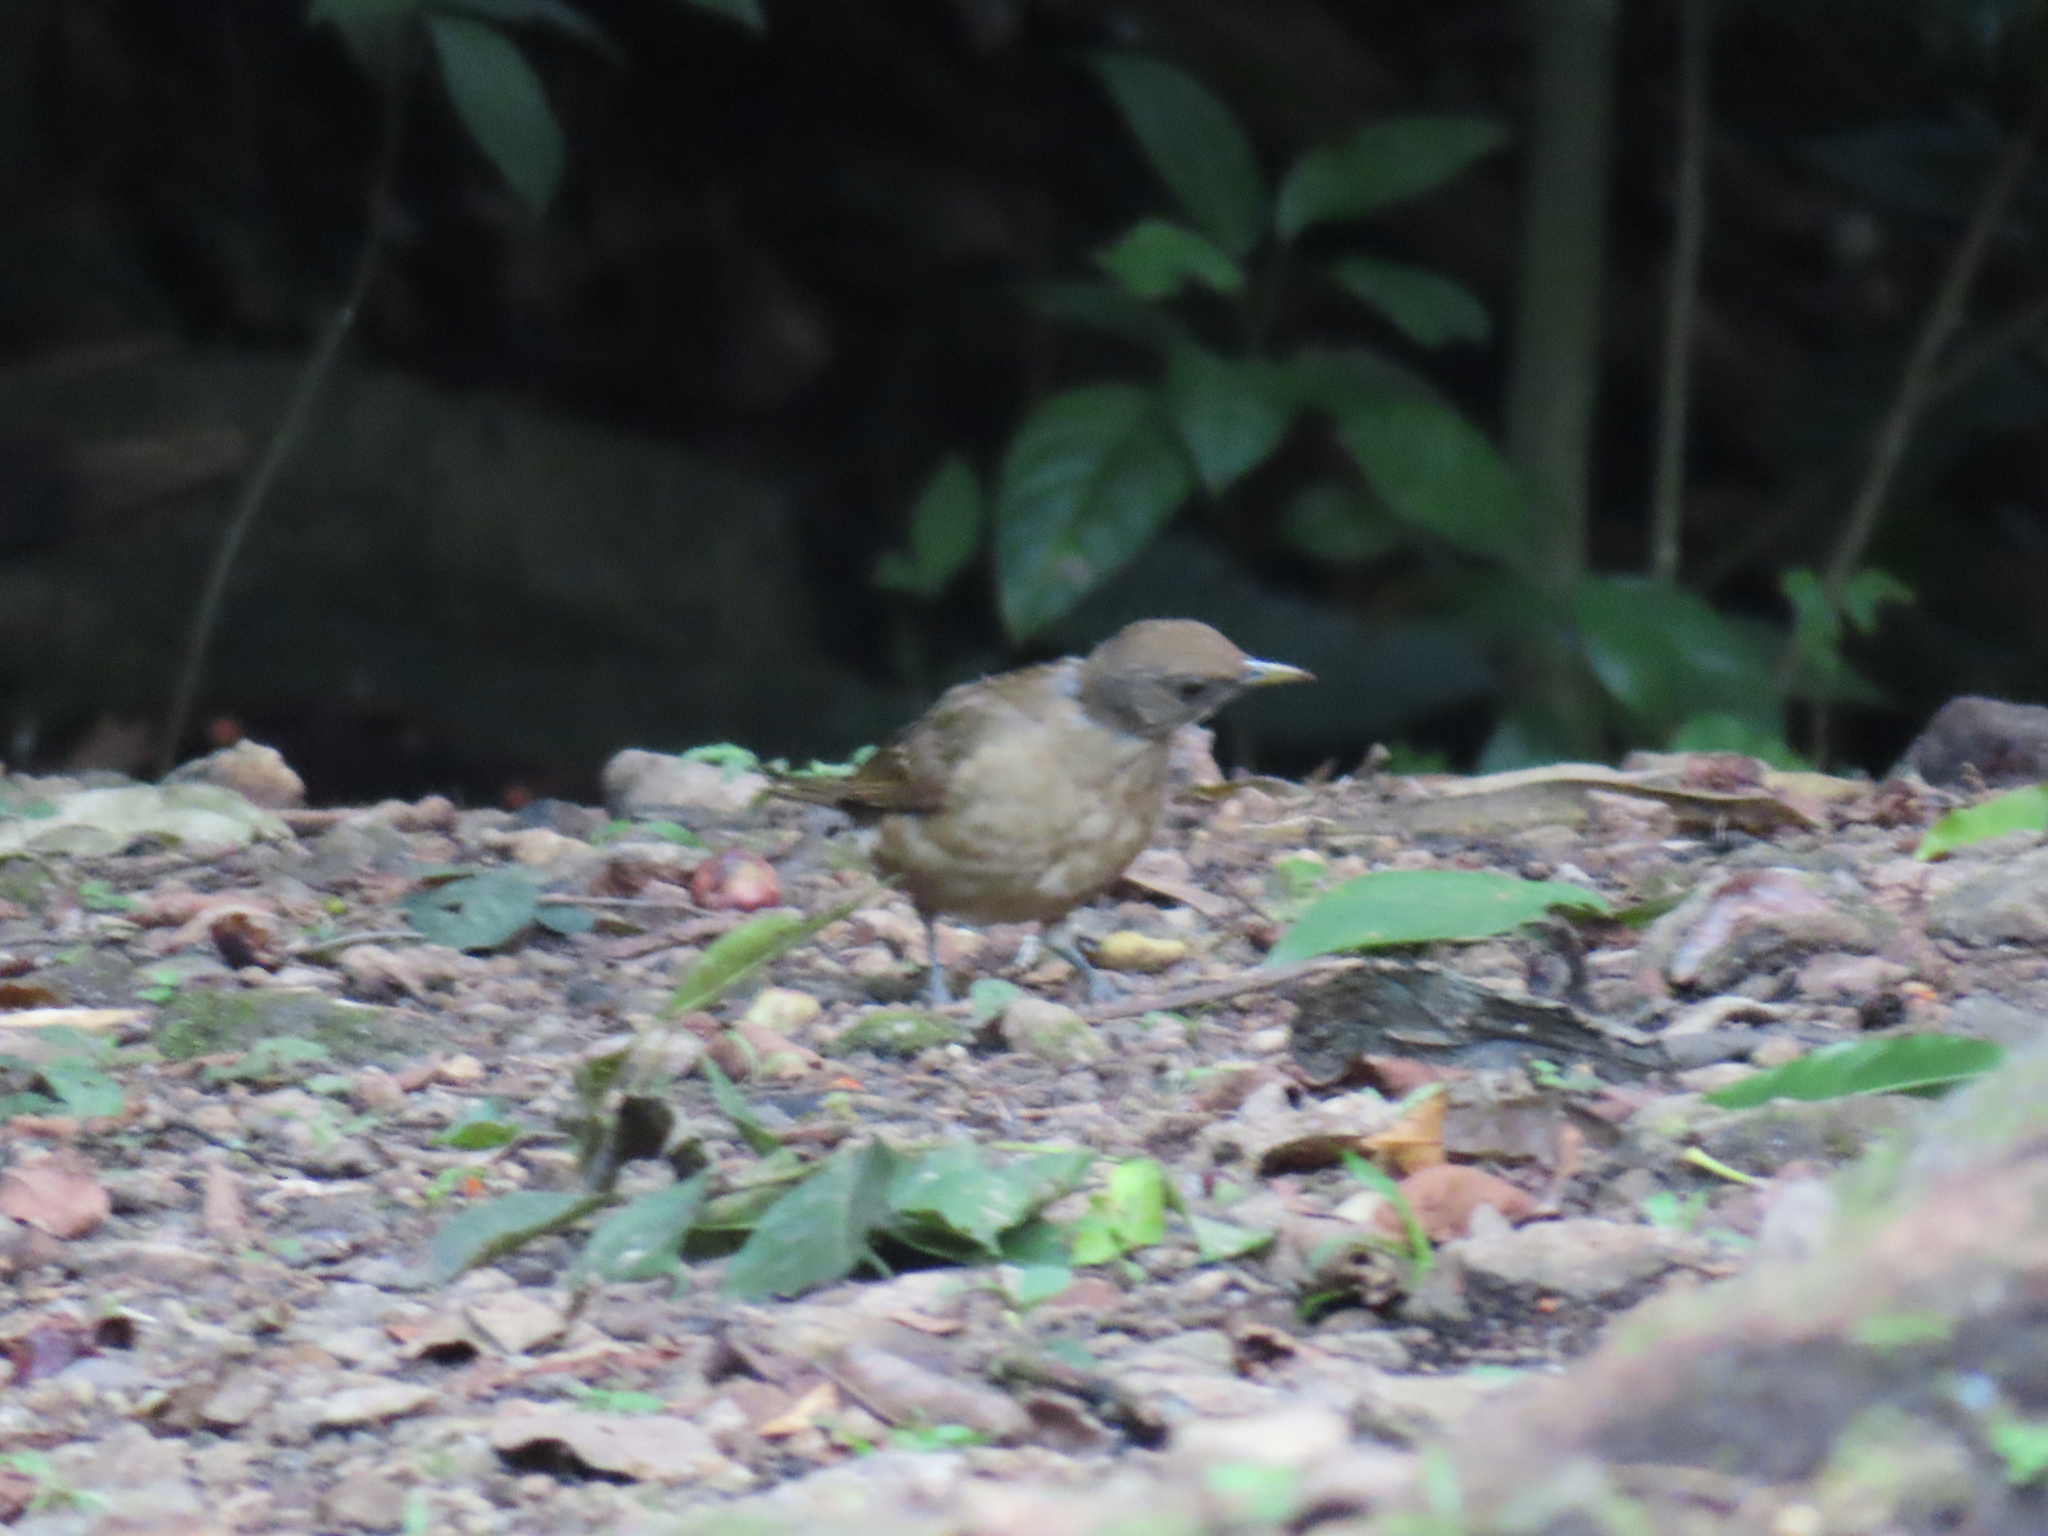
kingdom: Animalia
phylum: Chordata
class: Aves
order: Passeriformes
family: Turdidae
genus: Turdus
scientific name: Turdus grayi
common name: Clay-colored thrush
